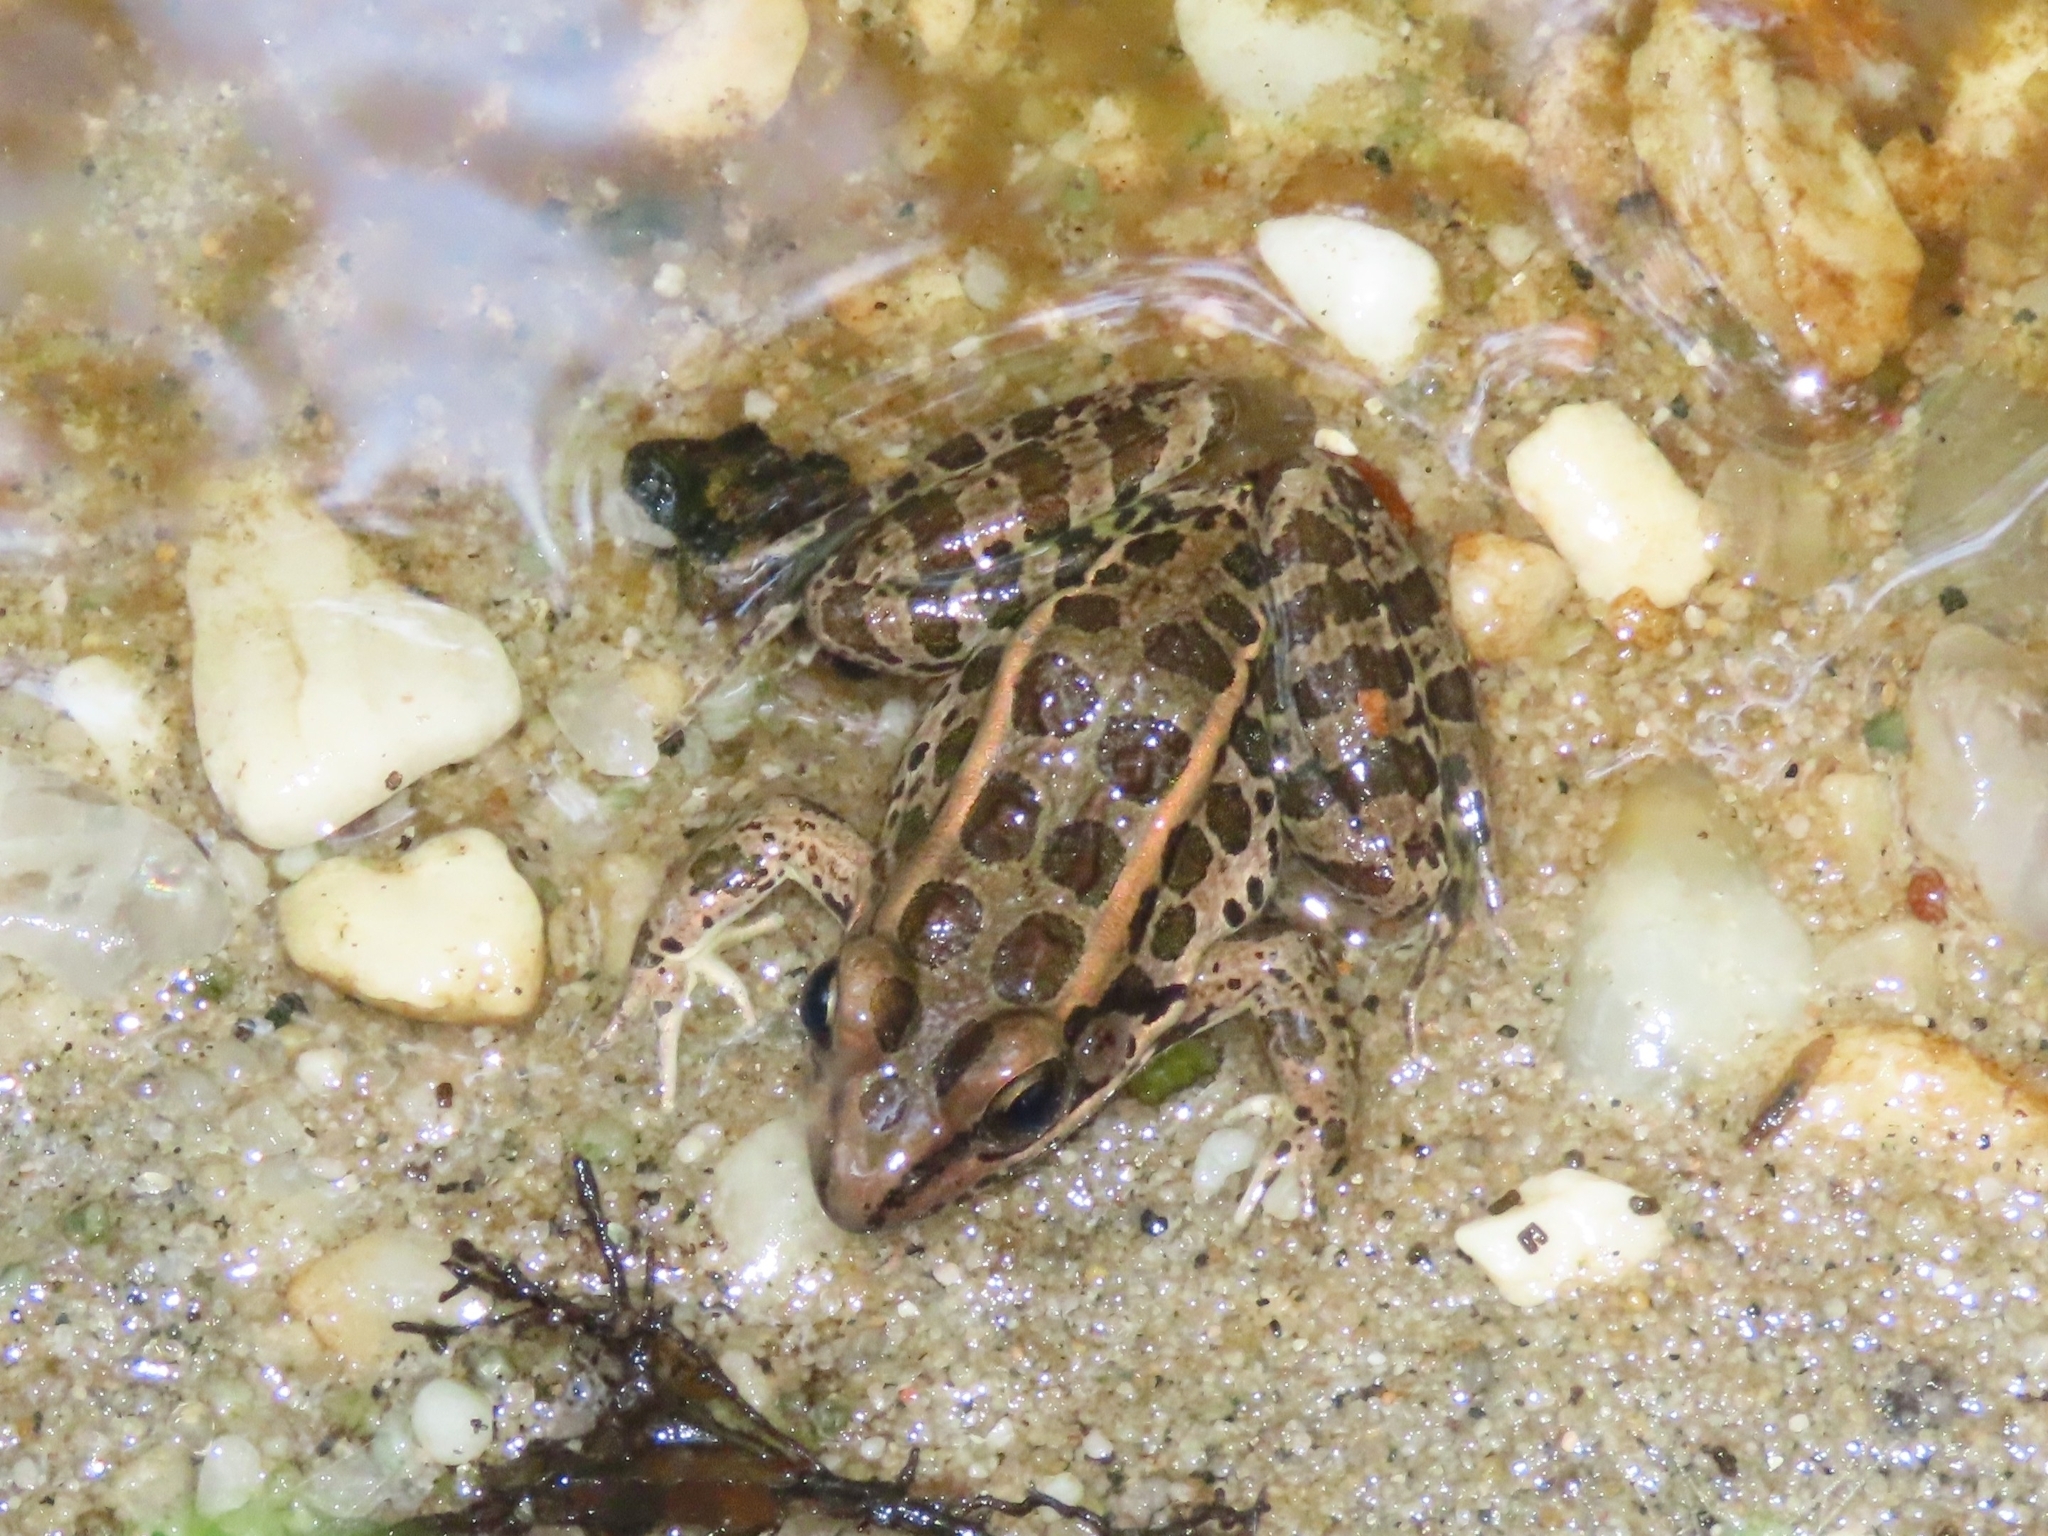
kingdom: Animalia
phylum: Chordata
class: Amphibia
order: Anura
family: Ranidae
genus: Lithobates
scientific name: Lithobates palustris
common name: Pickerel frog
